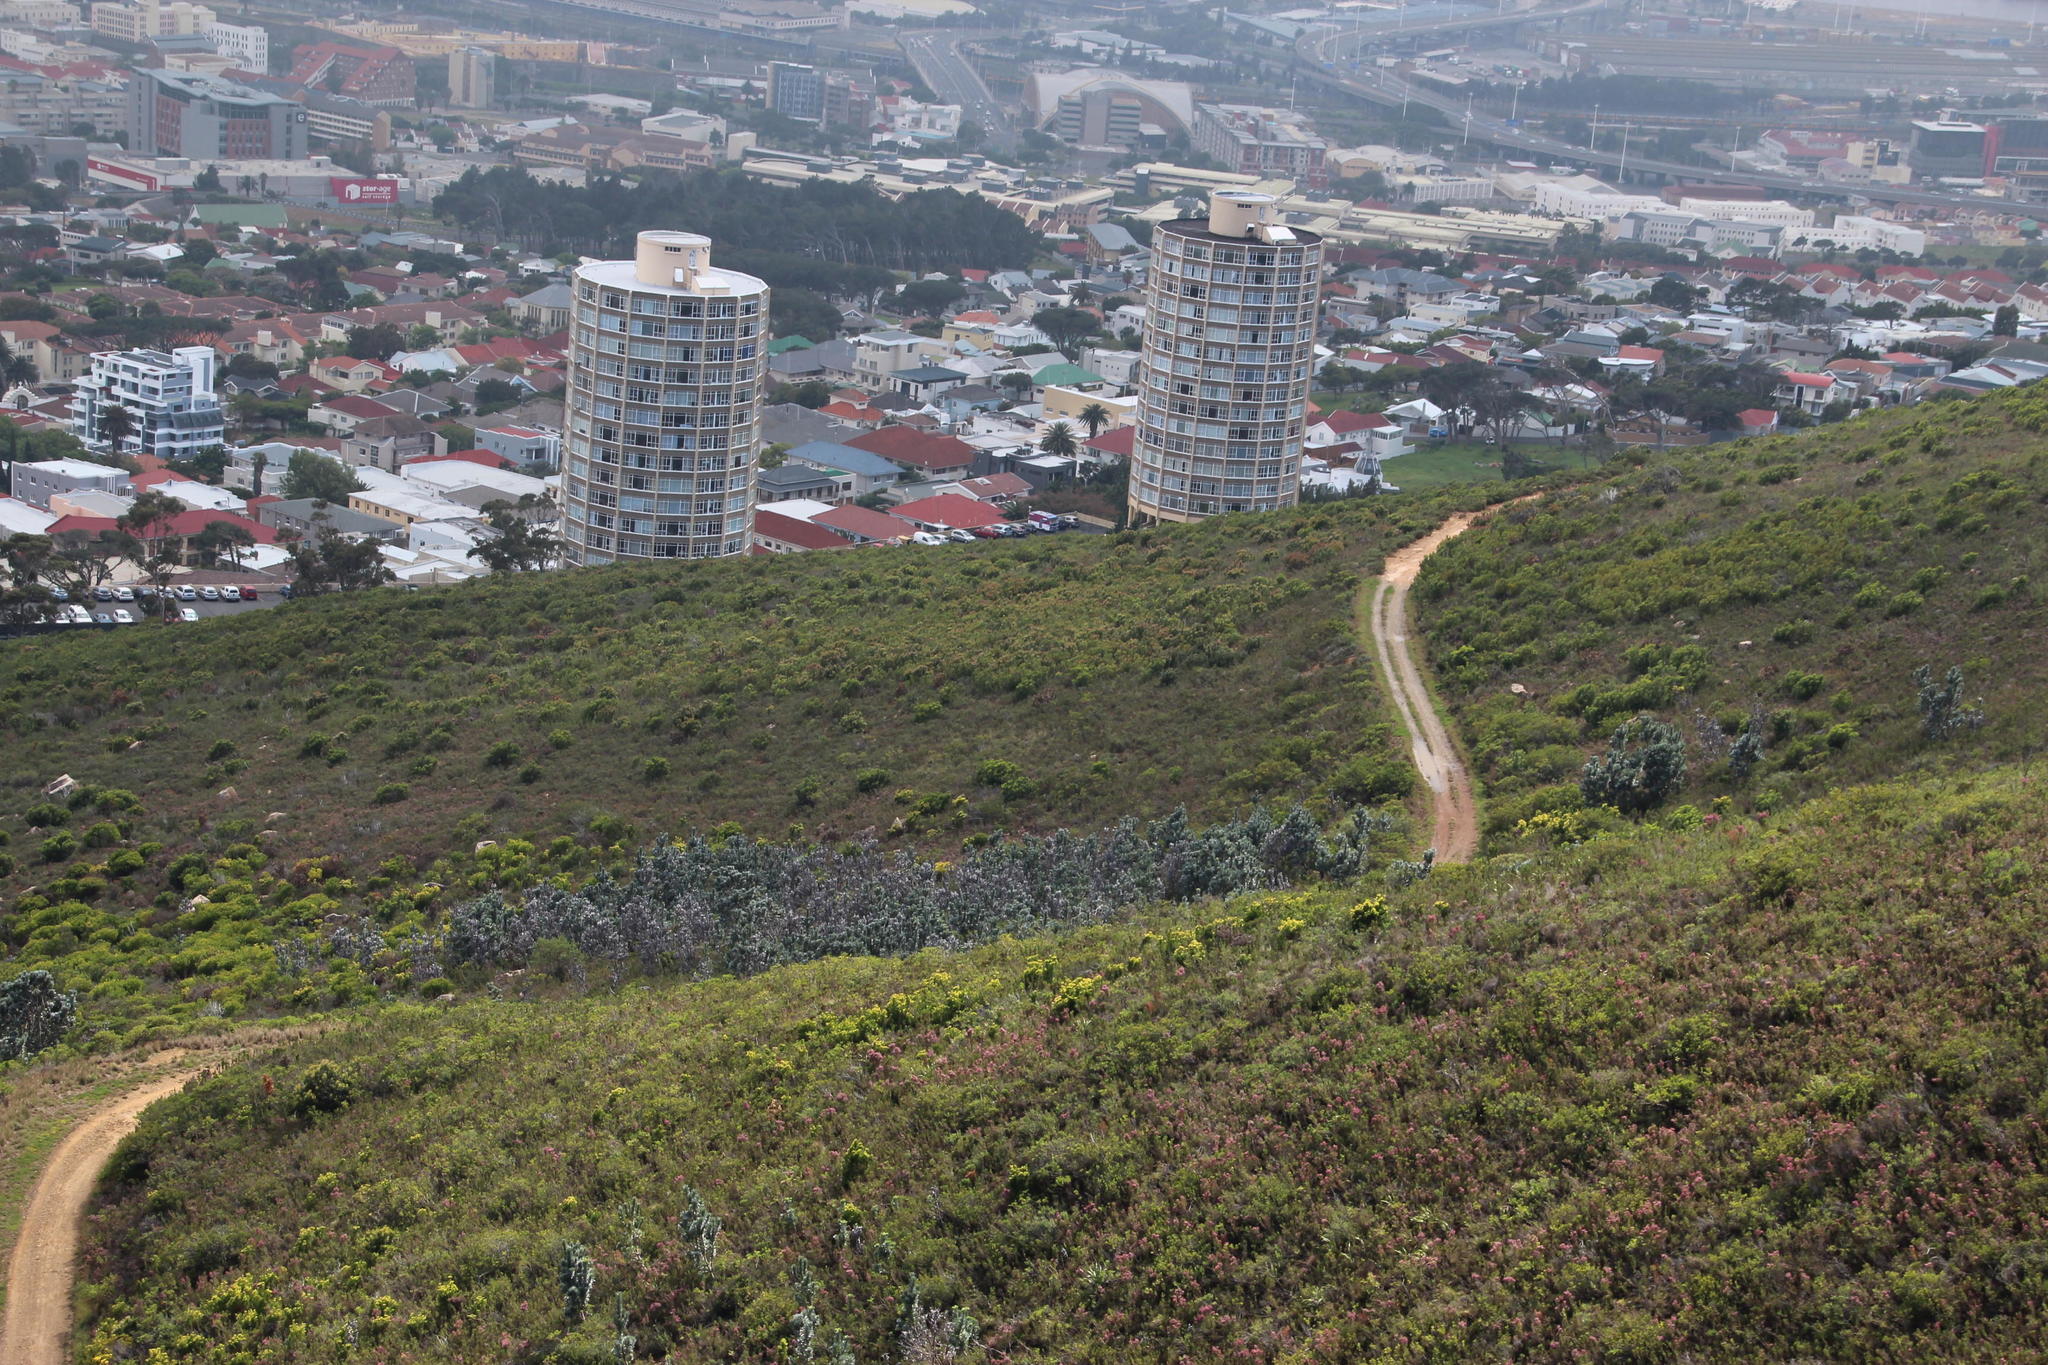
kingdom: Plantae
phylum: Tracheophyta
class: Magnoliopsida
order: Proteales
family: Proteaceae
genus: Leucadendron
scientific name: Leucadendron argenteum
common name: Cape silver tree
